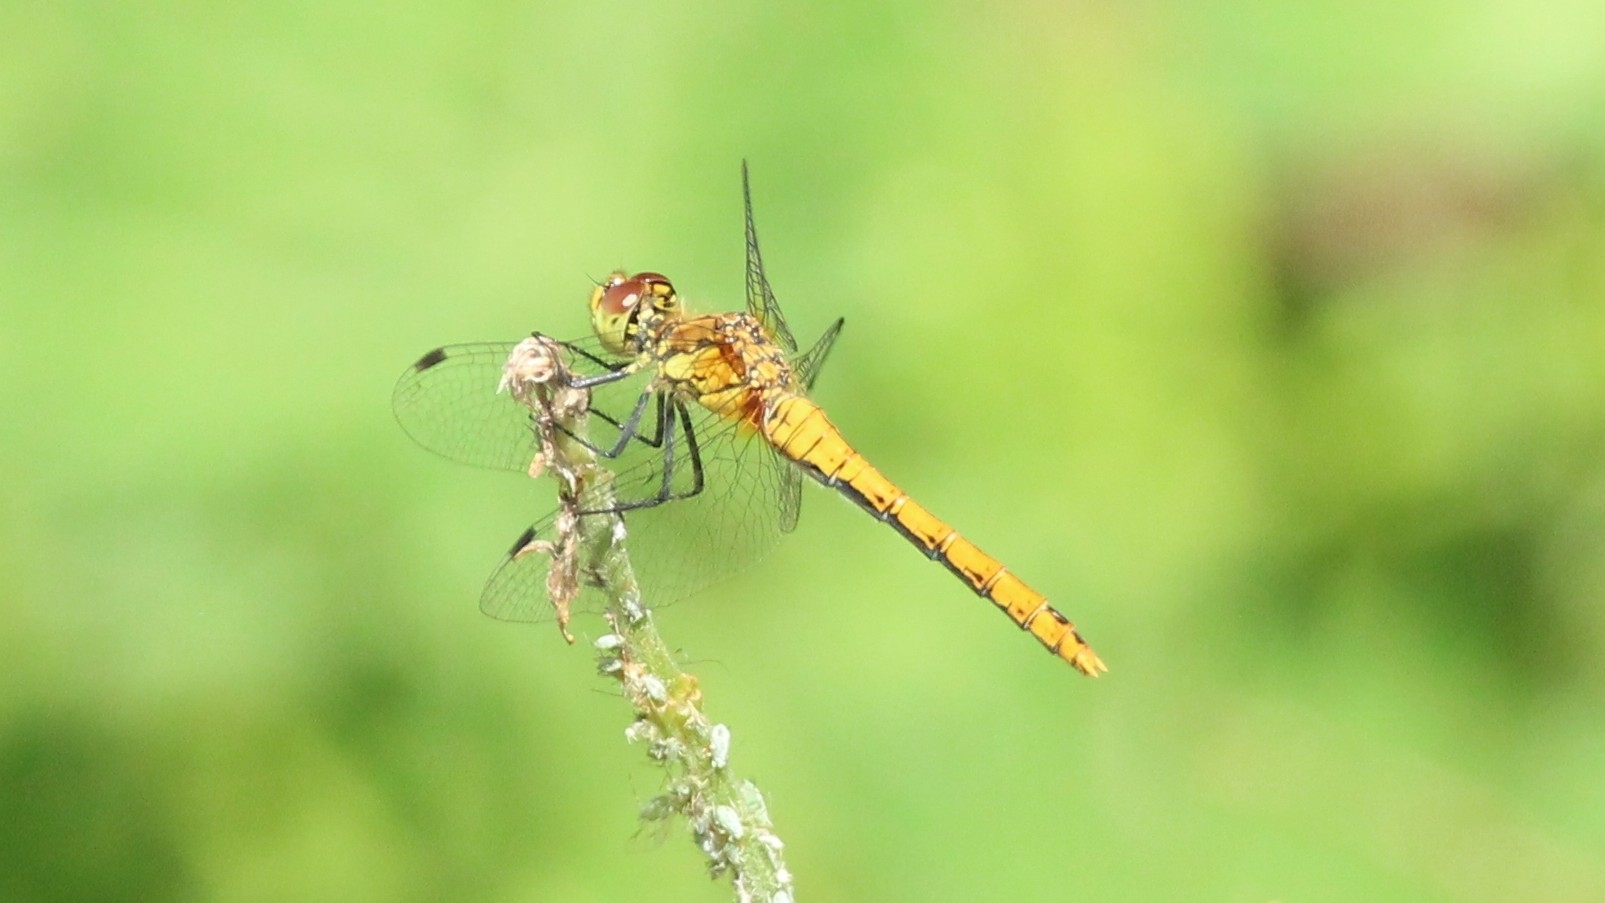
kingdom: Animalia
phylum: Arthropoda
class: Insecta
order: Odonata
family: Libellulidae
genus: Sympetrum
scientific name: Sympetrum sanguineum
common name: Ruddy darter
